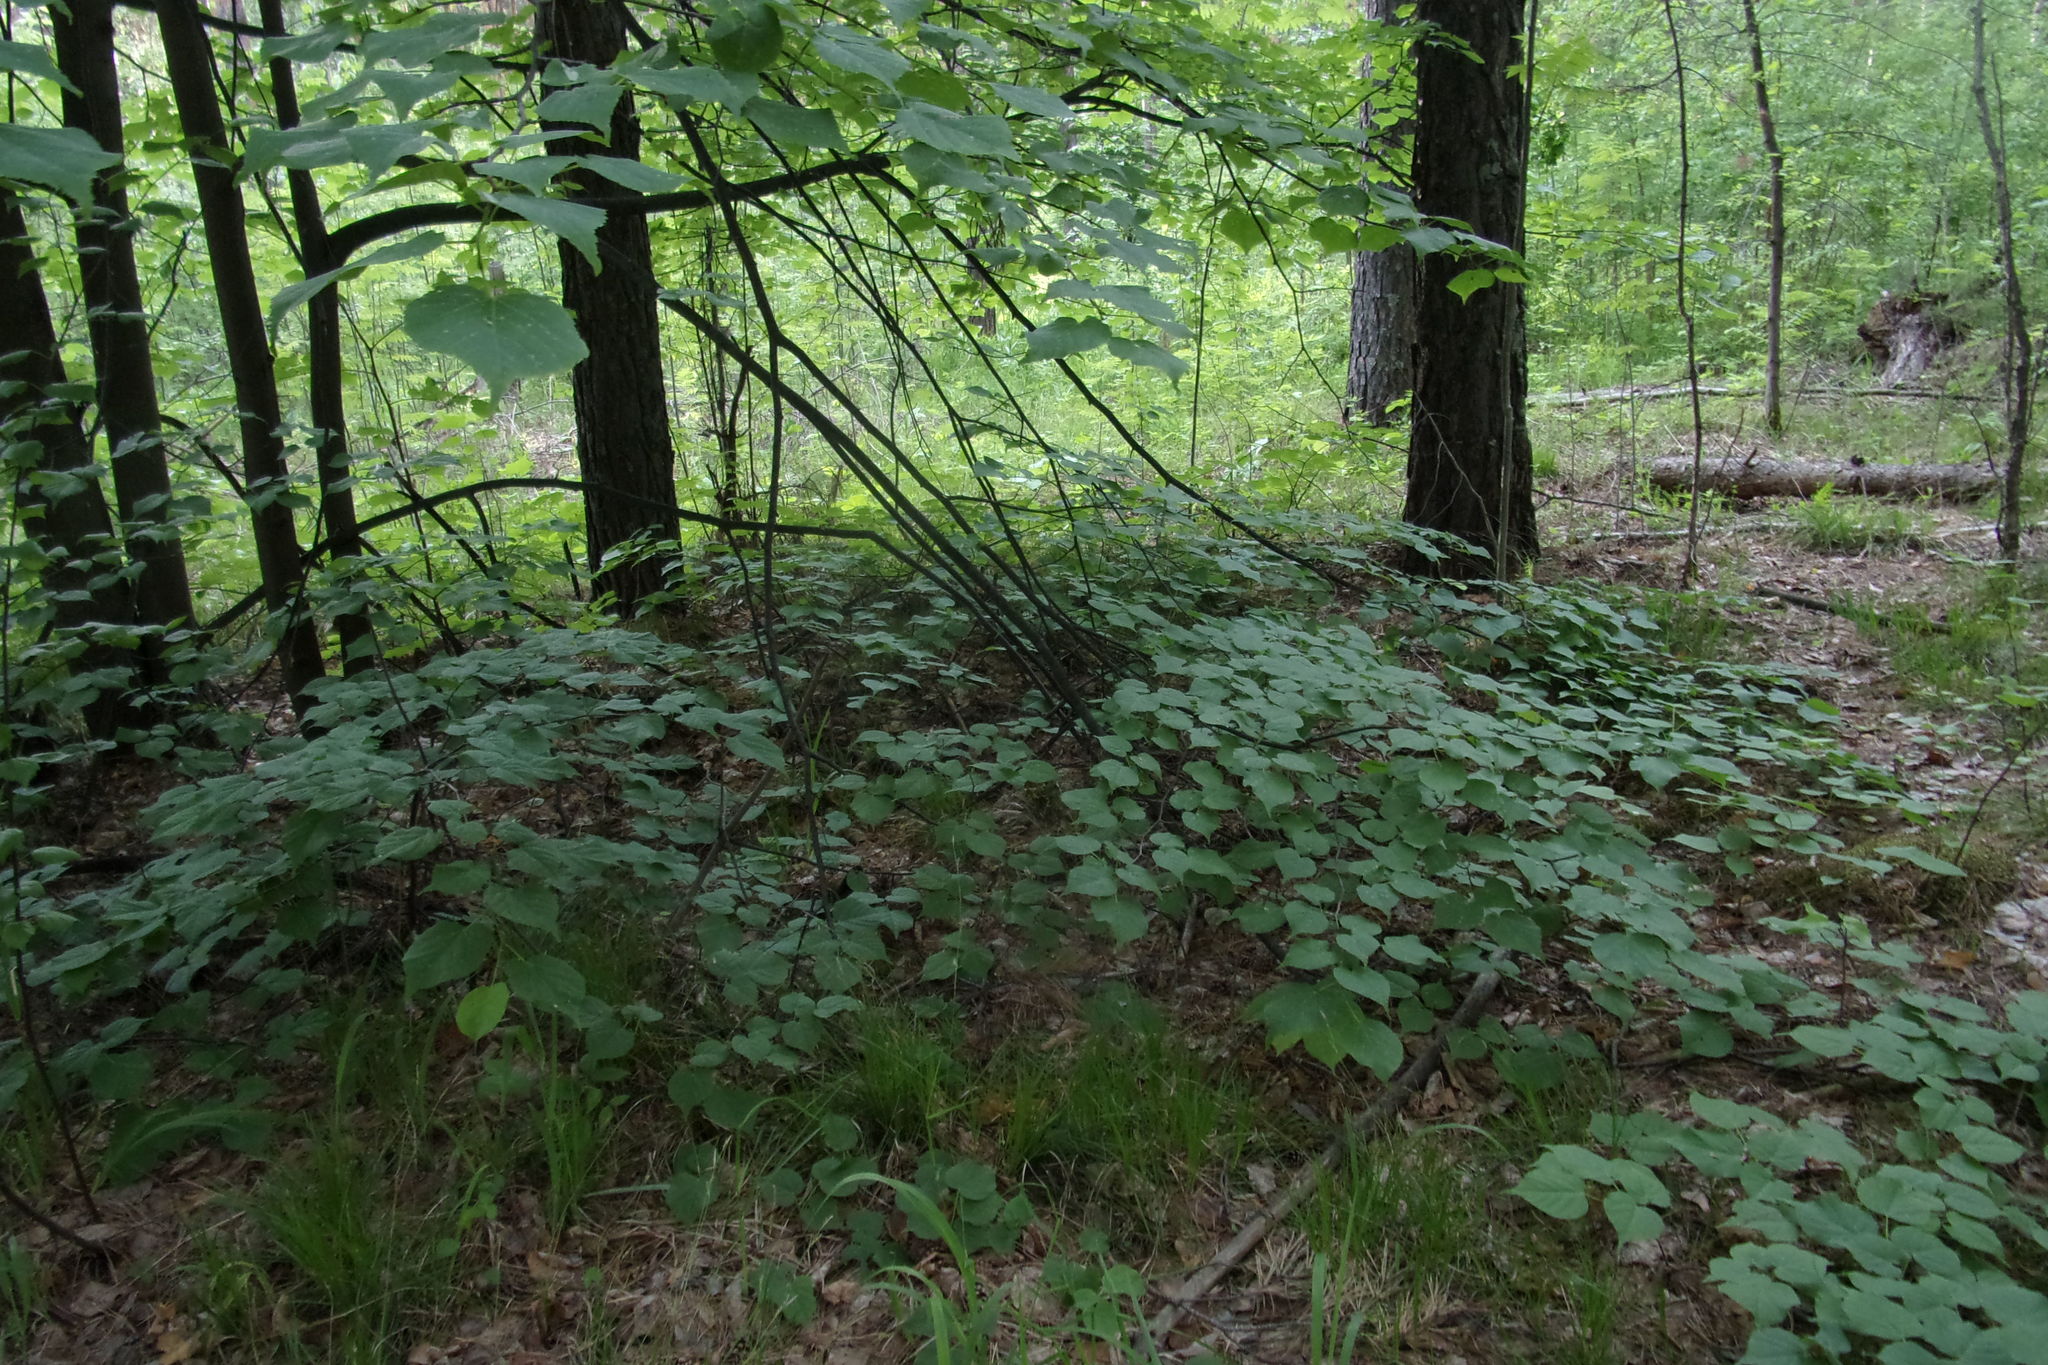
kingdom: Plantae
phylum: Tracheophyta
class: Magnoliopsida
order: Malvales
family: Malvaceae
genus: Tilia
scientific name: Tilia cordata
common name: Small-leaved lime
